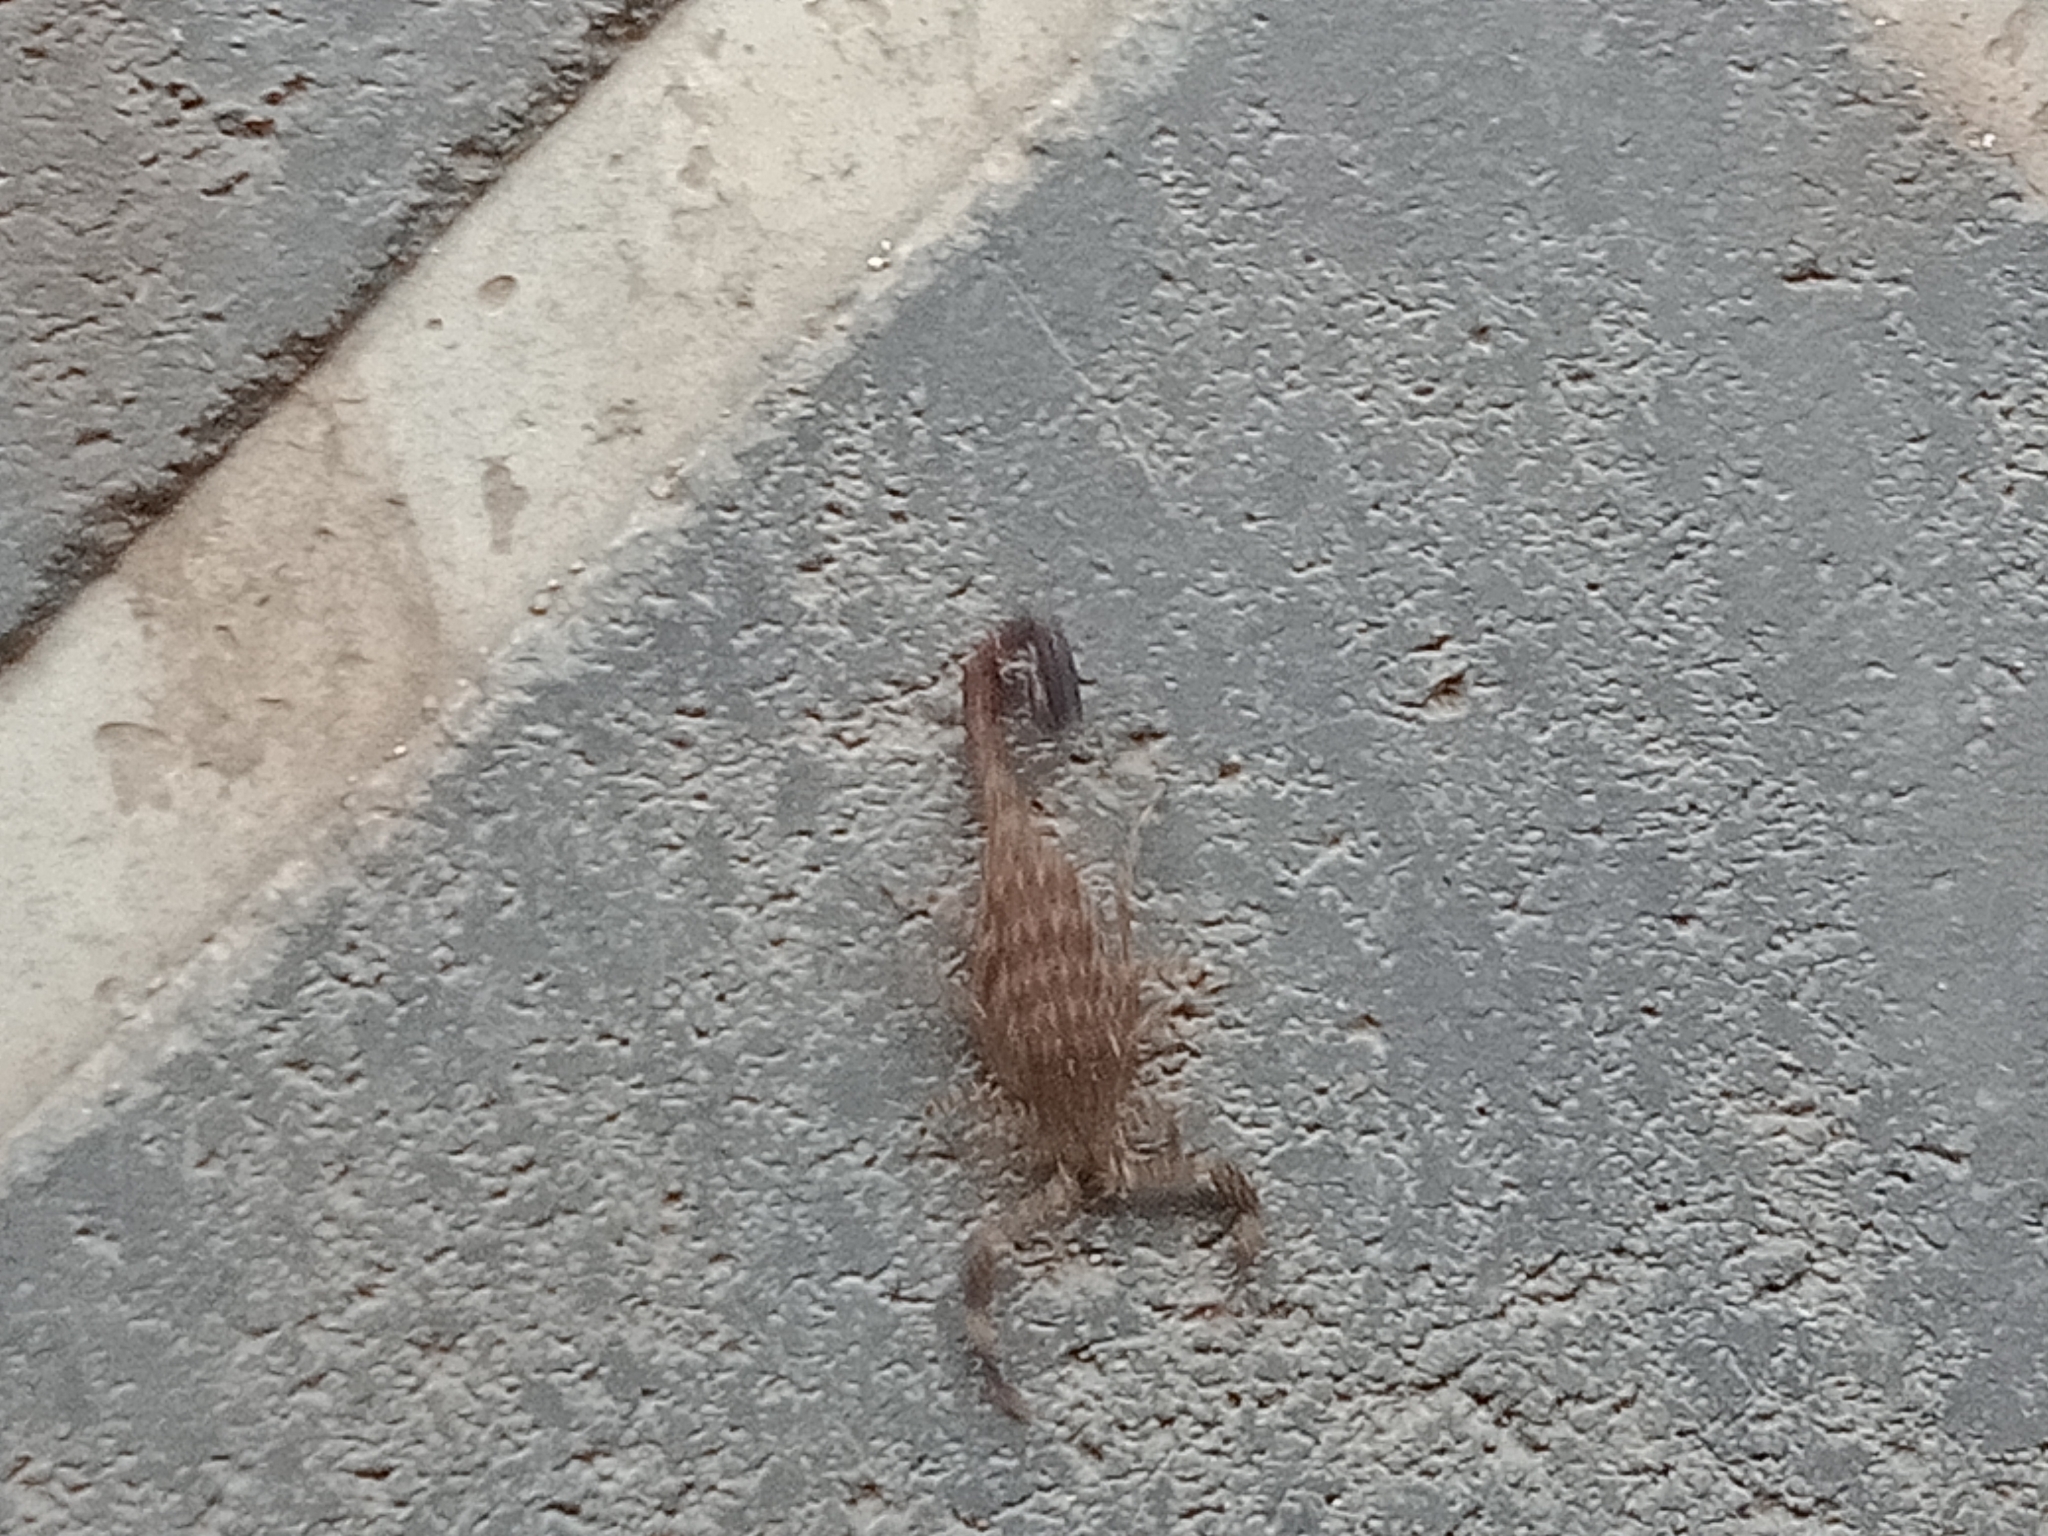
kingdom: Animalia
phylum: Arthropoda
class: Arachnida
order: Scorpiones
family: Buthidae
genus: Lychas
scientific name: Lychas variatus
